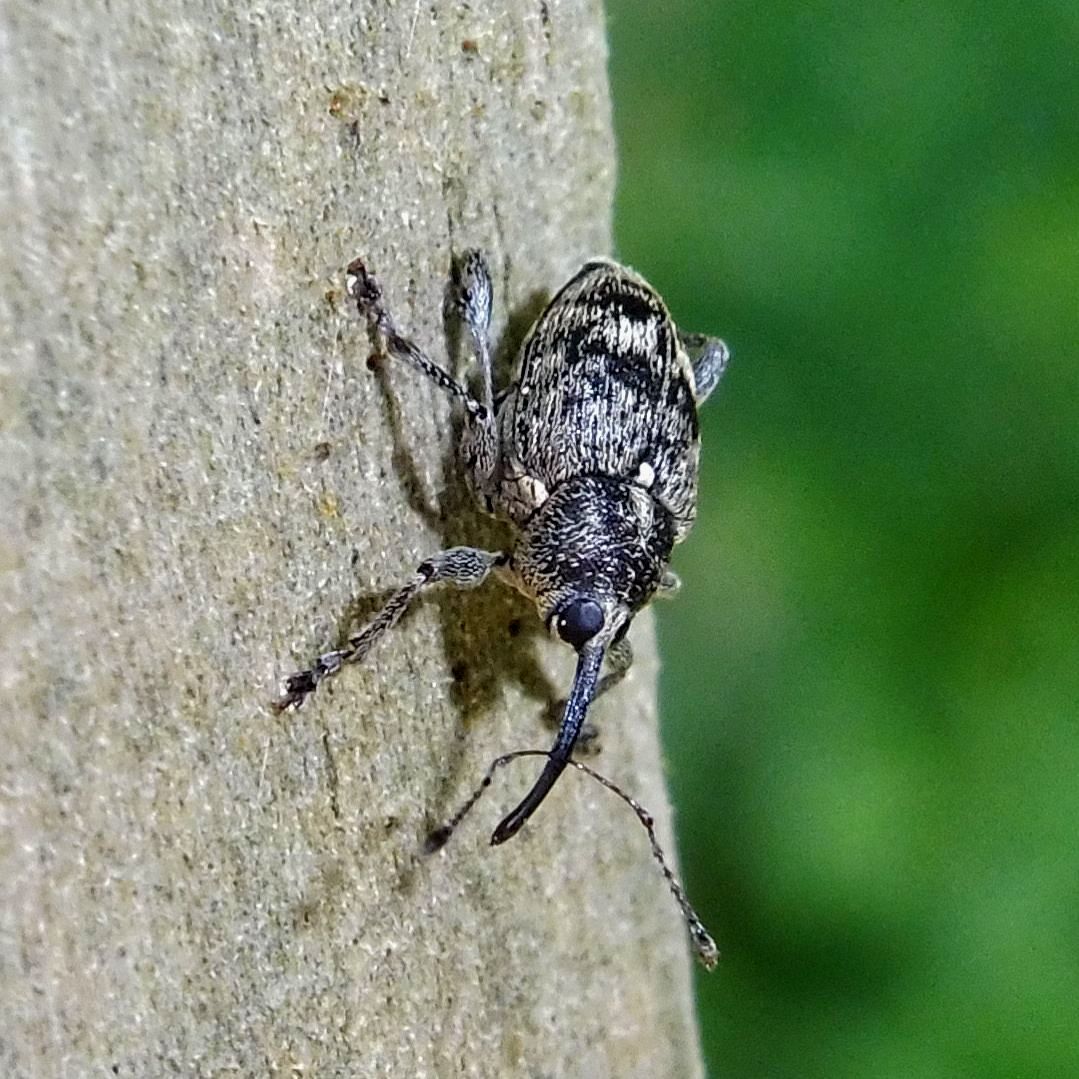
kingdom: Animalia
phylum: Arthropoda
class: Insecta
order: Coleoptera
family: Curculionidae
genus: Curculio
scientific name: Curculio villosus
